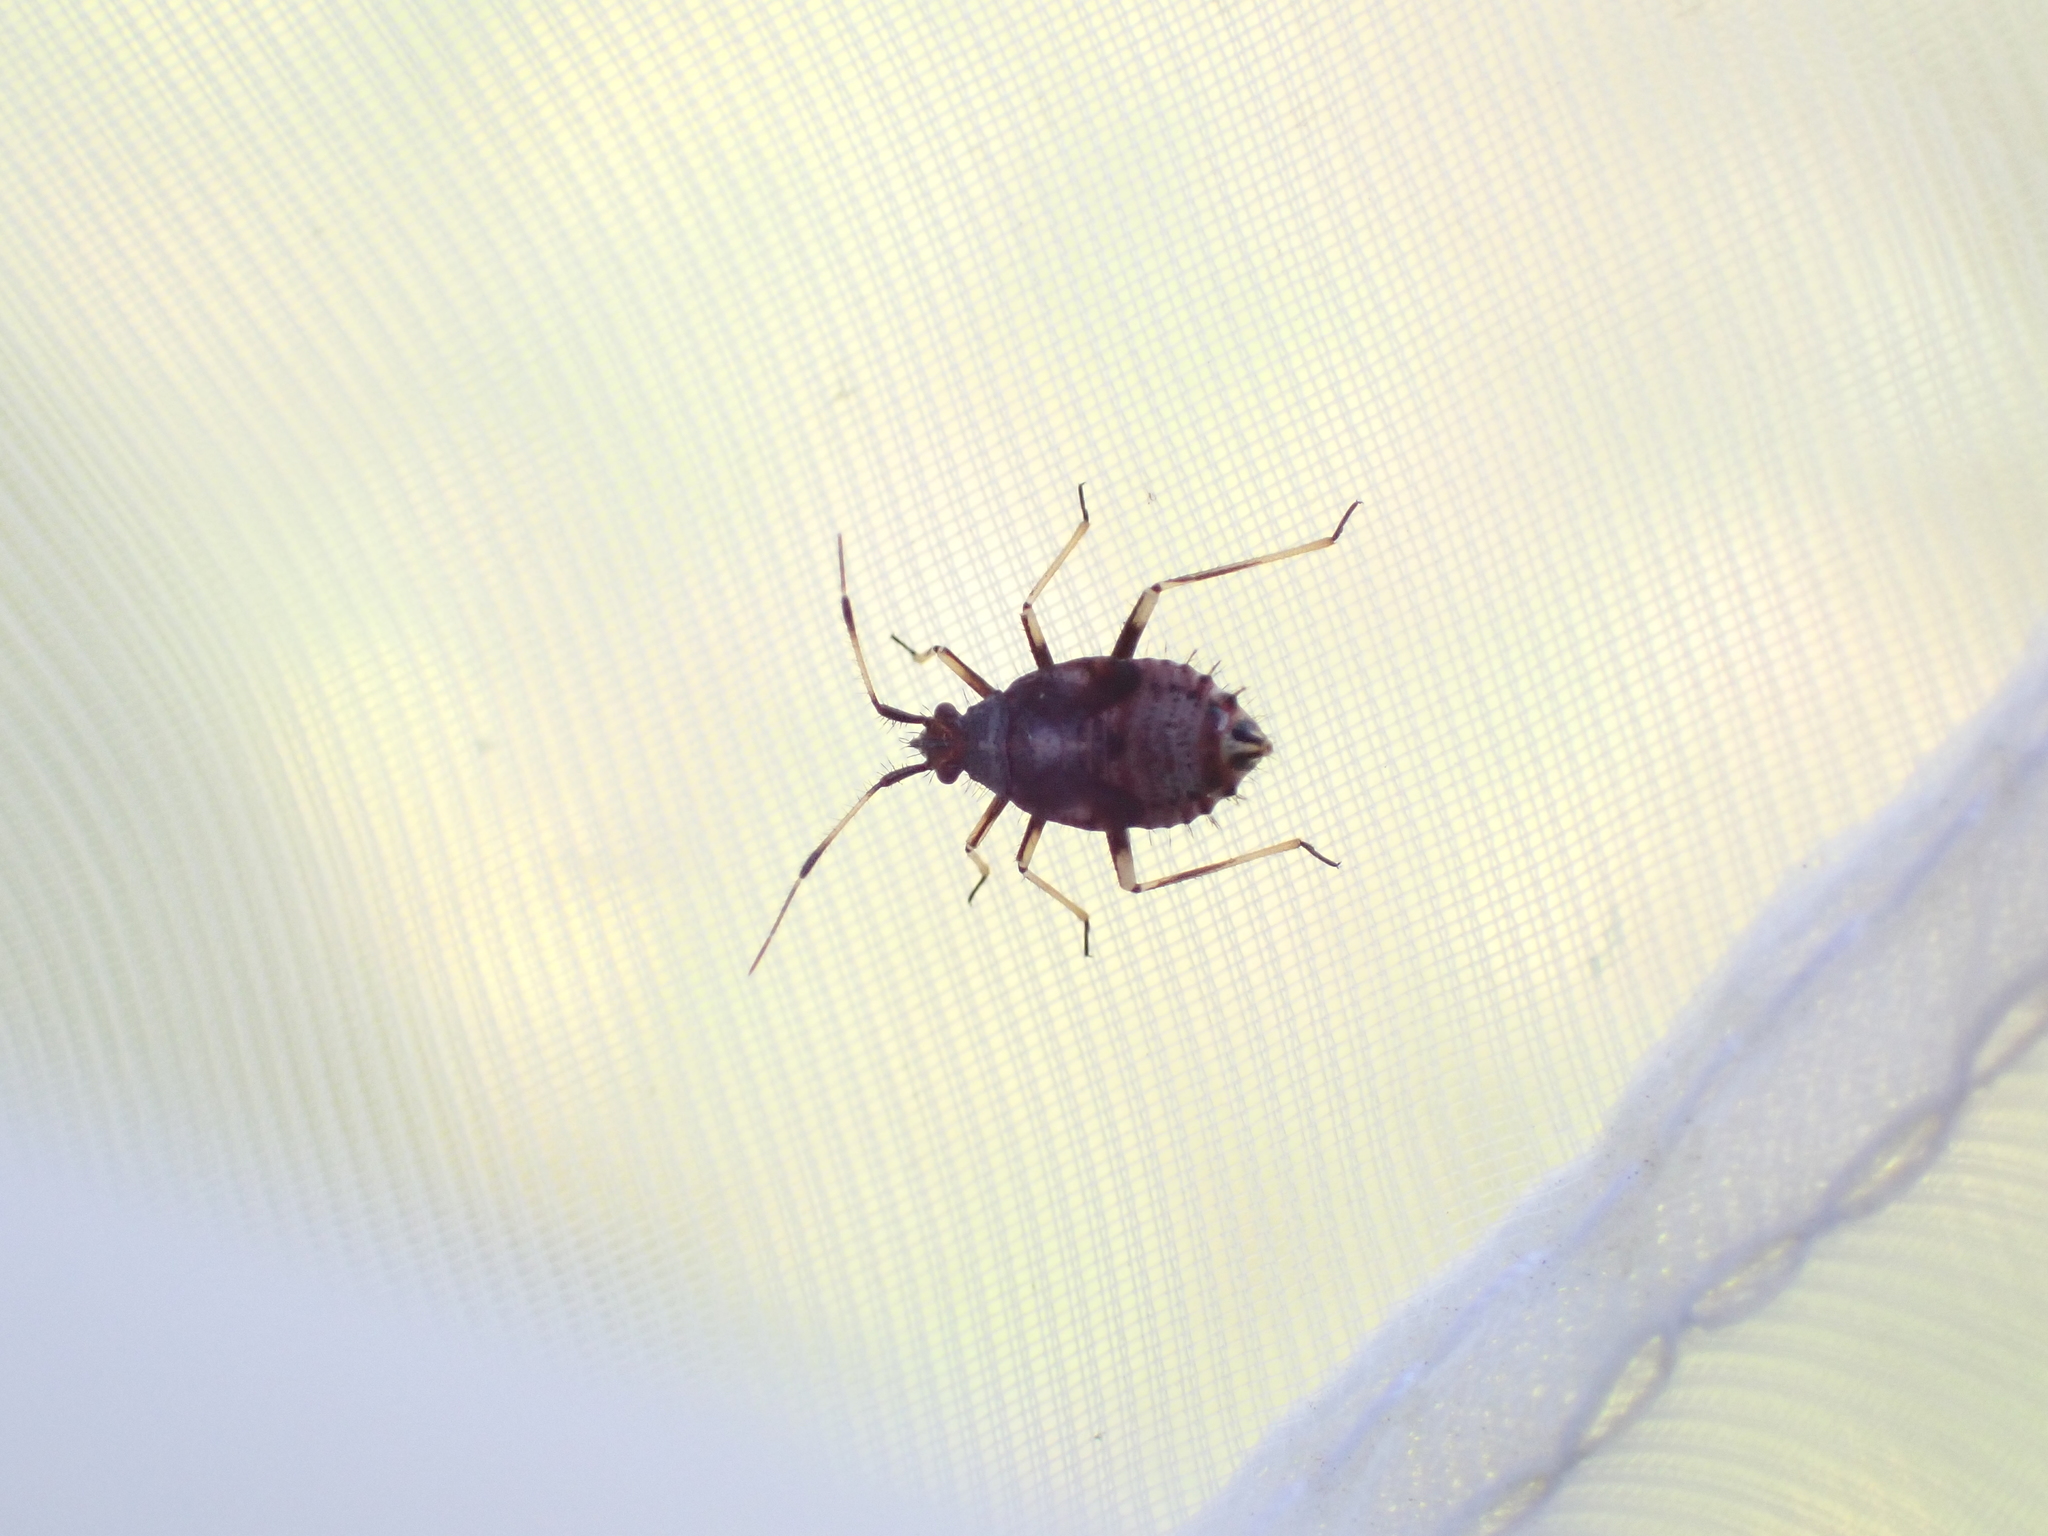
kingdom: Animalia
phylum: Arthropoda
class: Insecta
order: Hemiptera
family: Miridae
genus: Deraeocoris
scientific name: Deraeocoris ruber
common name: Plant bug
